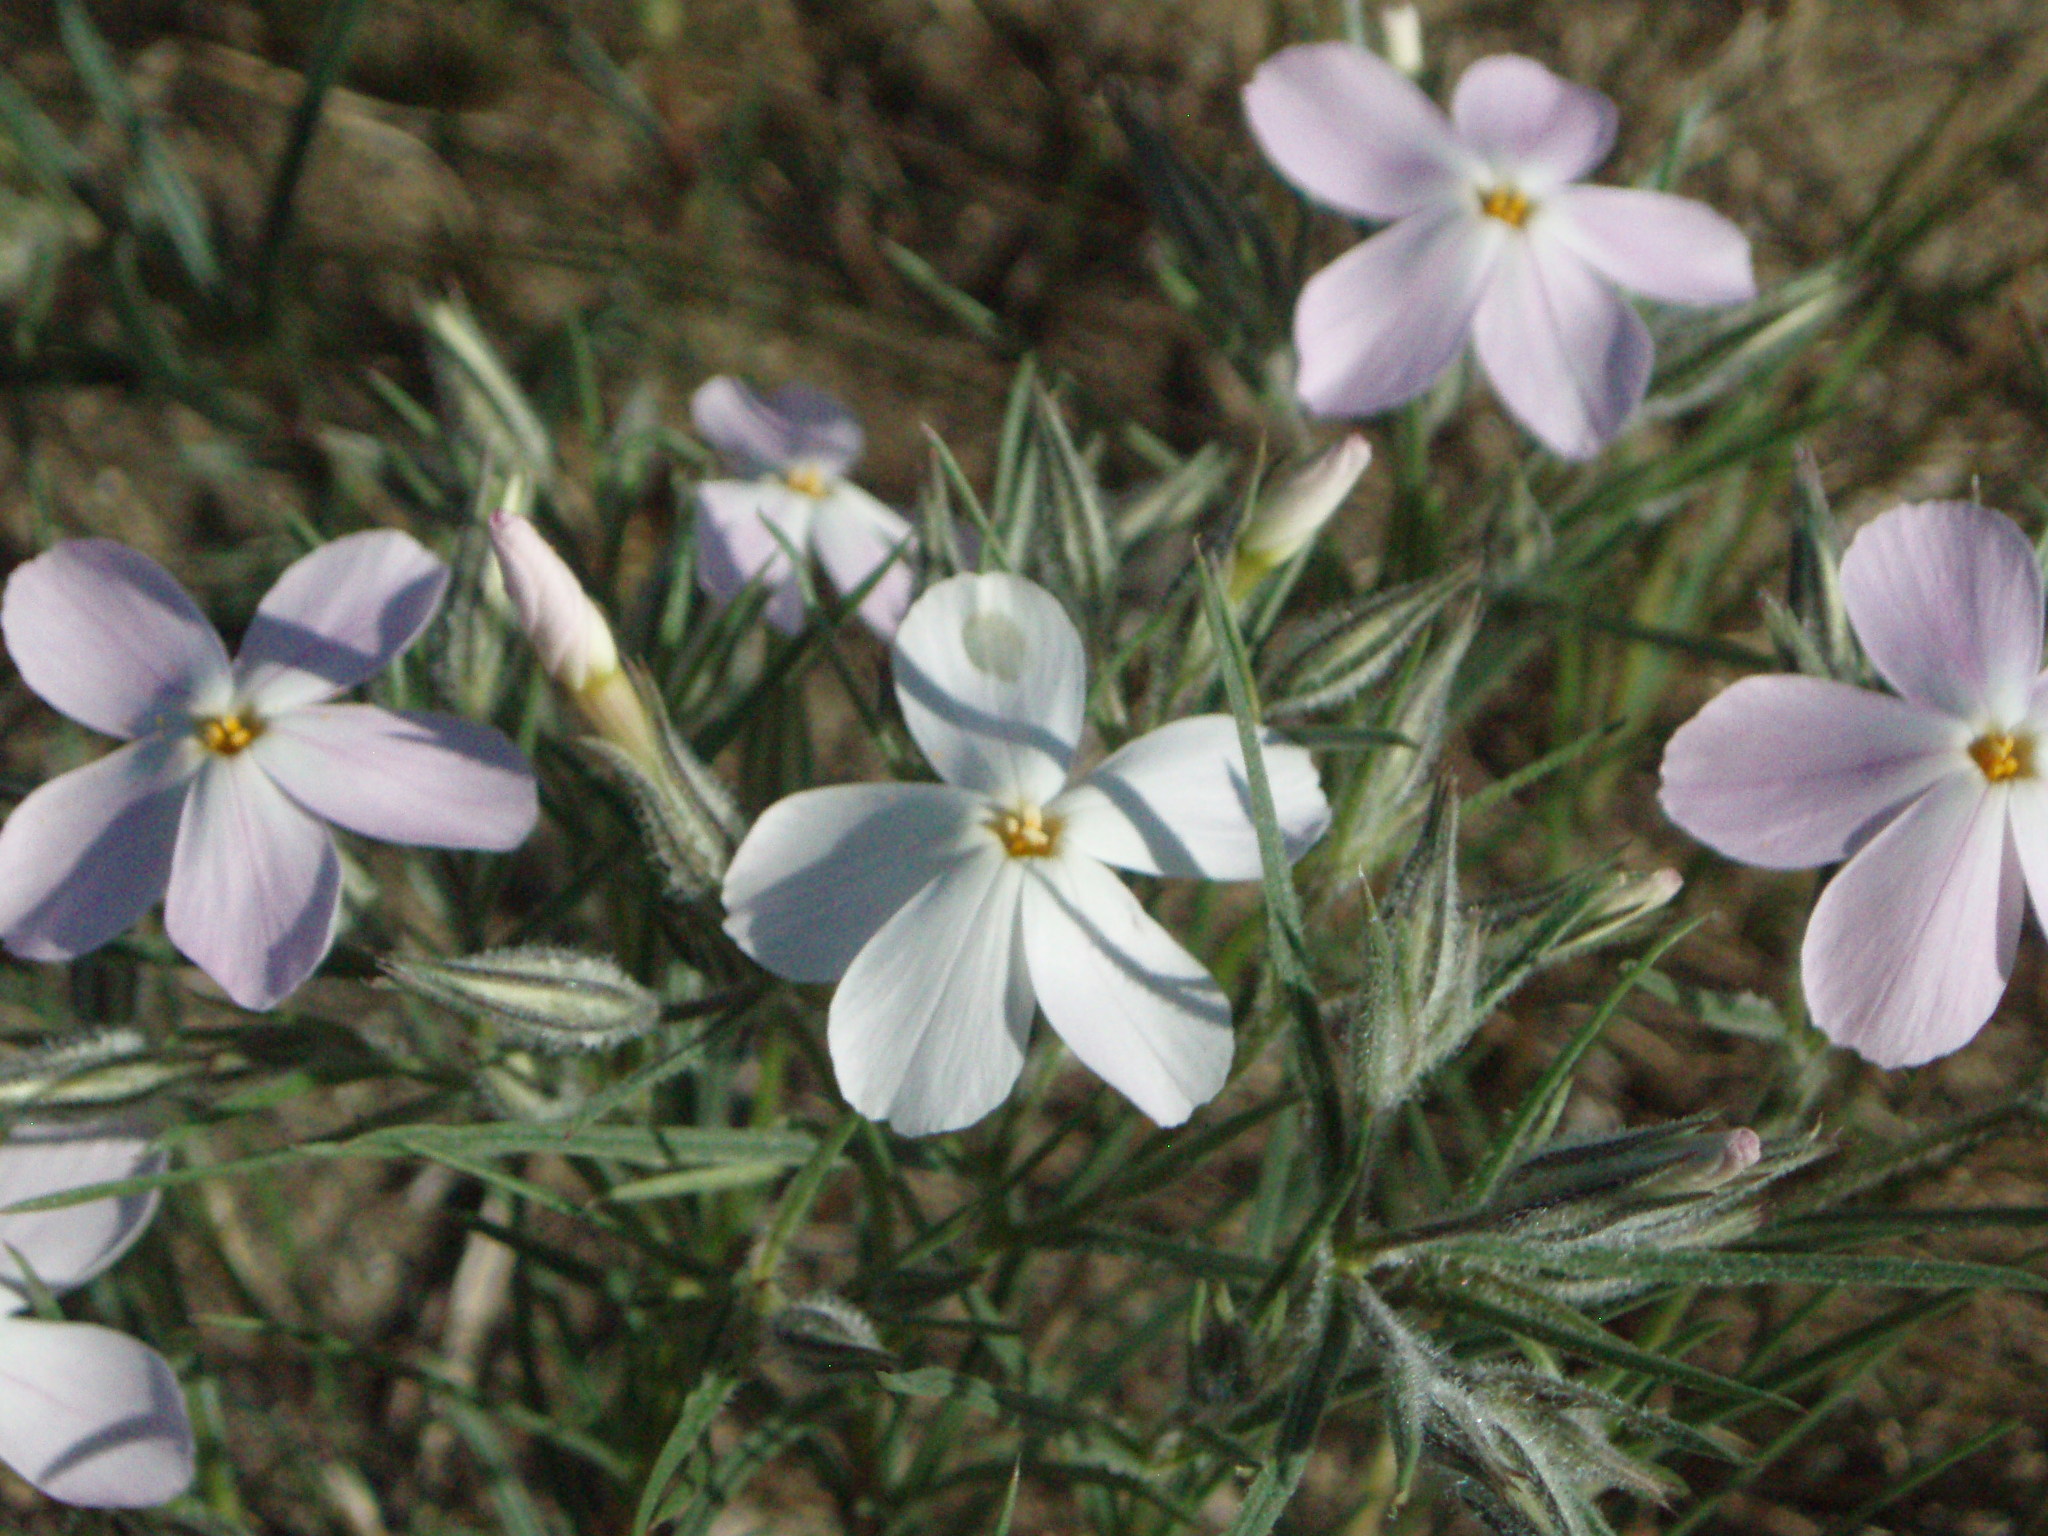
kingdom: Plantae
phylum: Tracheophyta
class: Magnoliopsida
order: Ericales
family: Polemoniaceae
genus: Phlox
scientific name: Phlox longifolia
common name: Longleaf phlox
